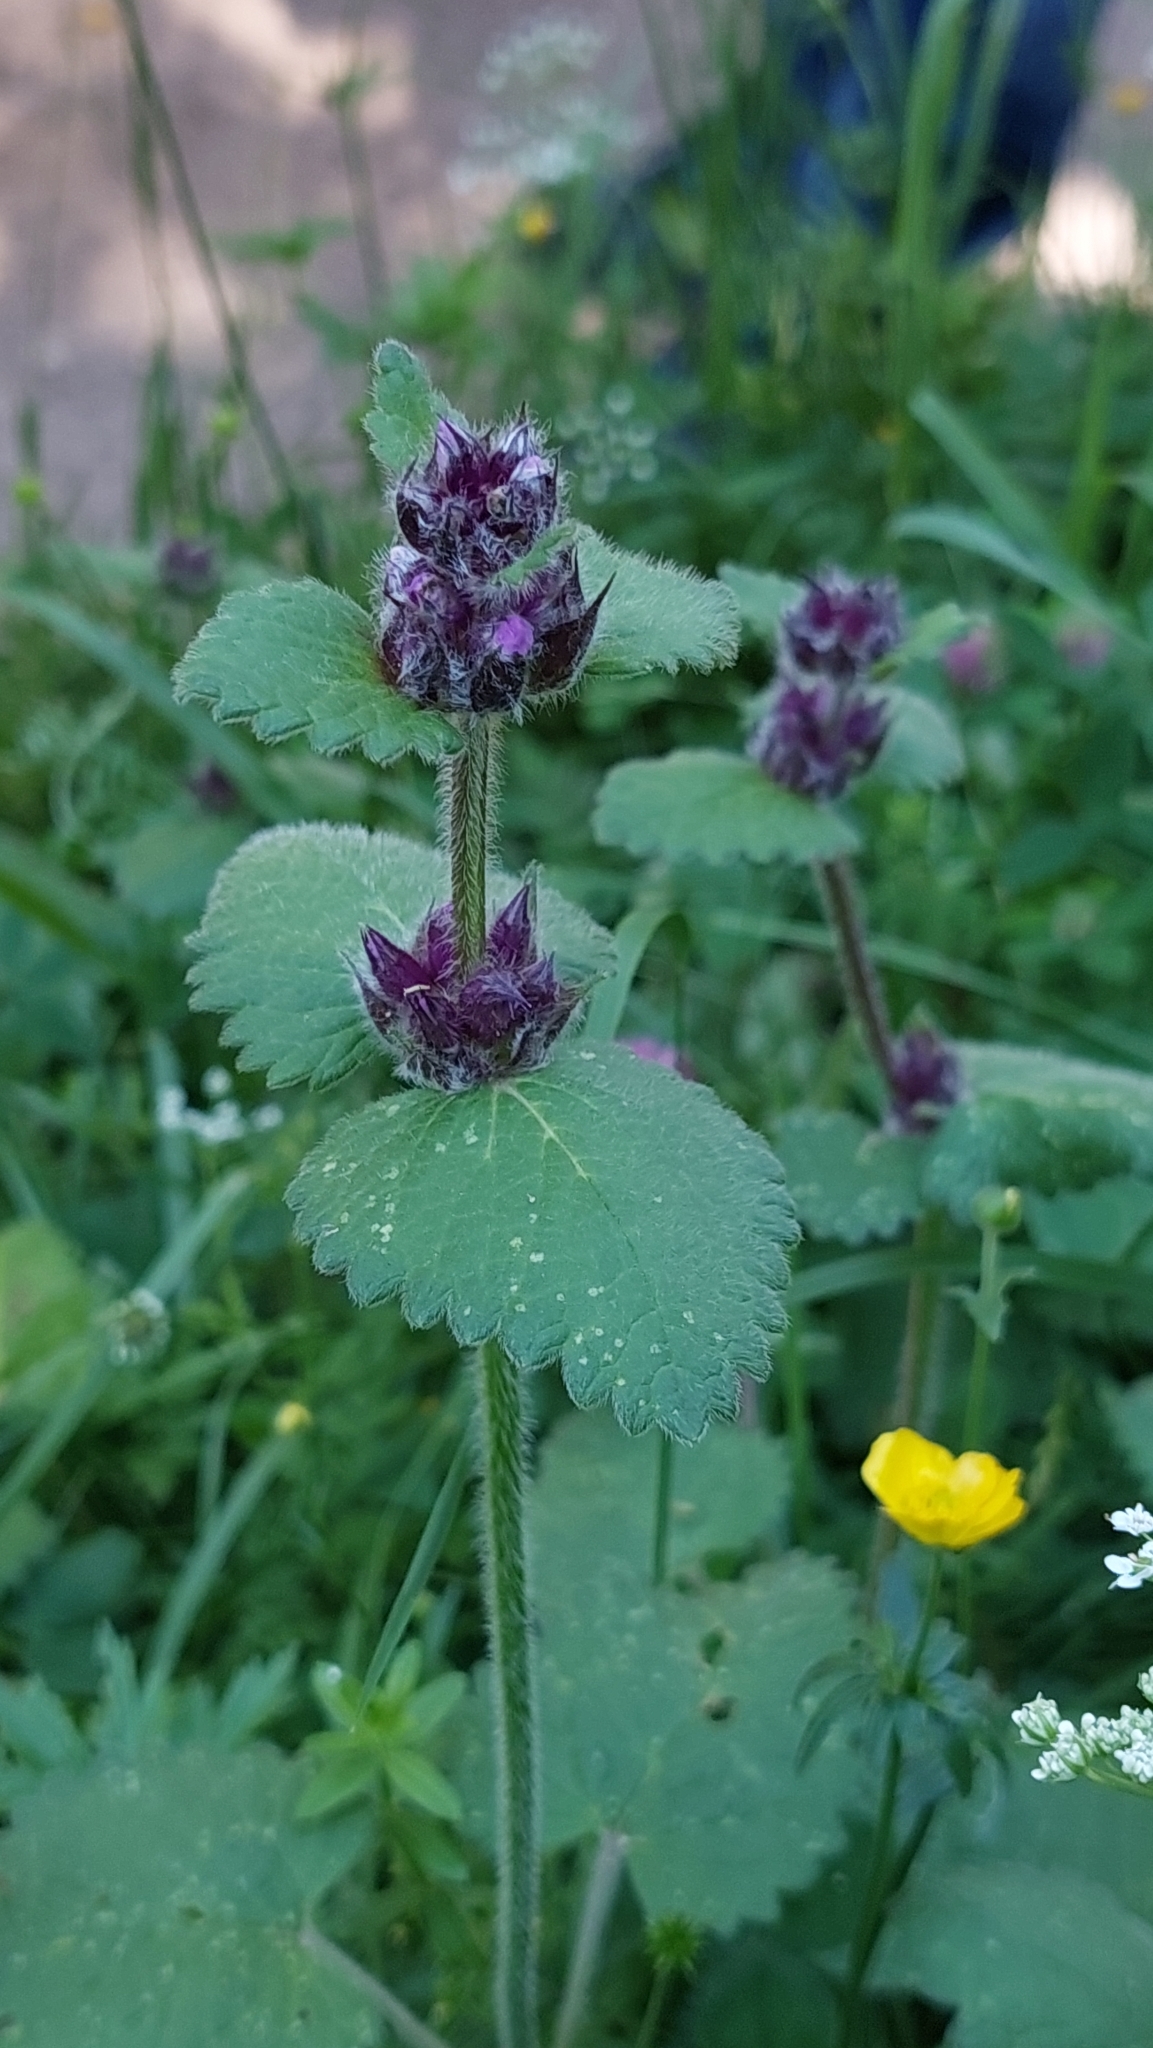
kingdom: Plantae
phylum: Tracheophyta
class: Magnoliopsida
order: Lamiales
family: Lamiaceae
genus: Betonica
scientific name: Betonica macrantha
